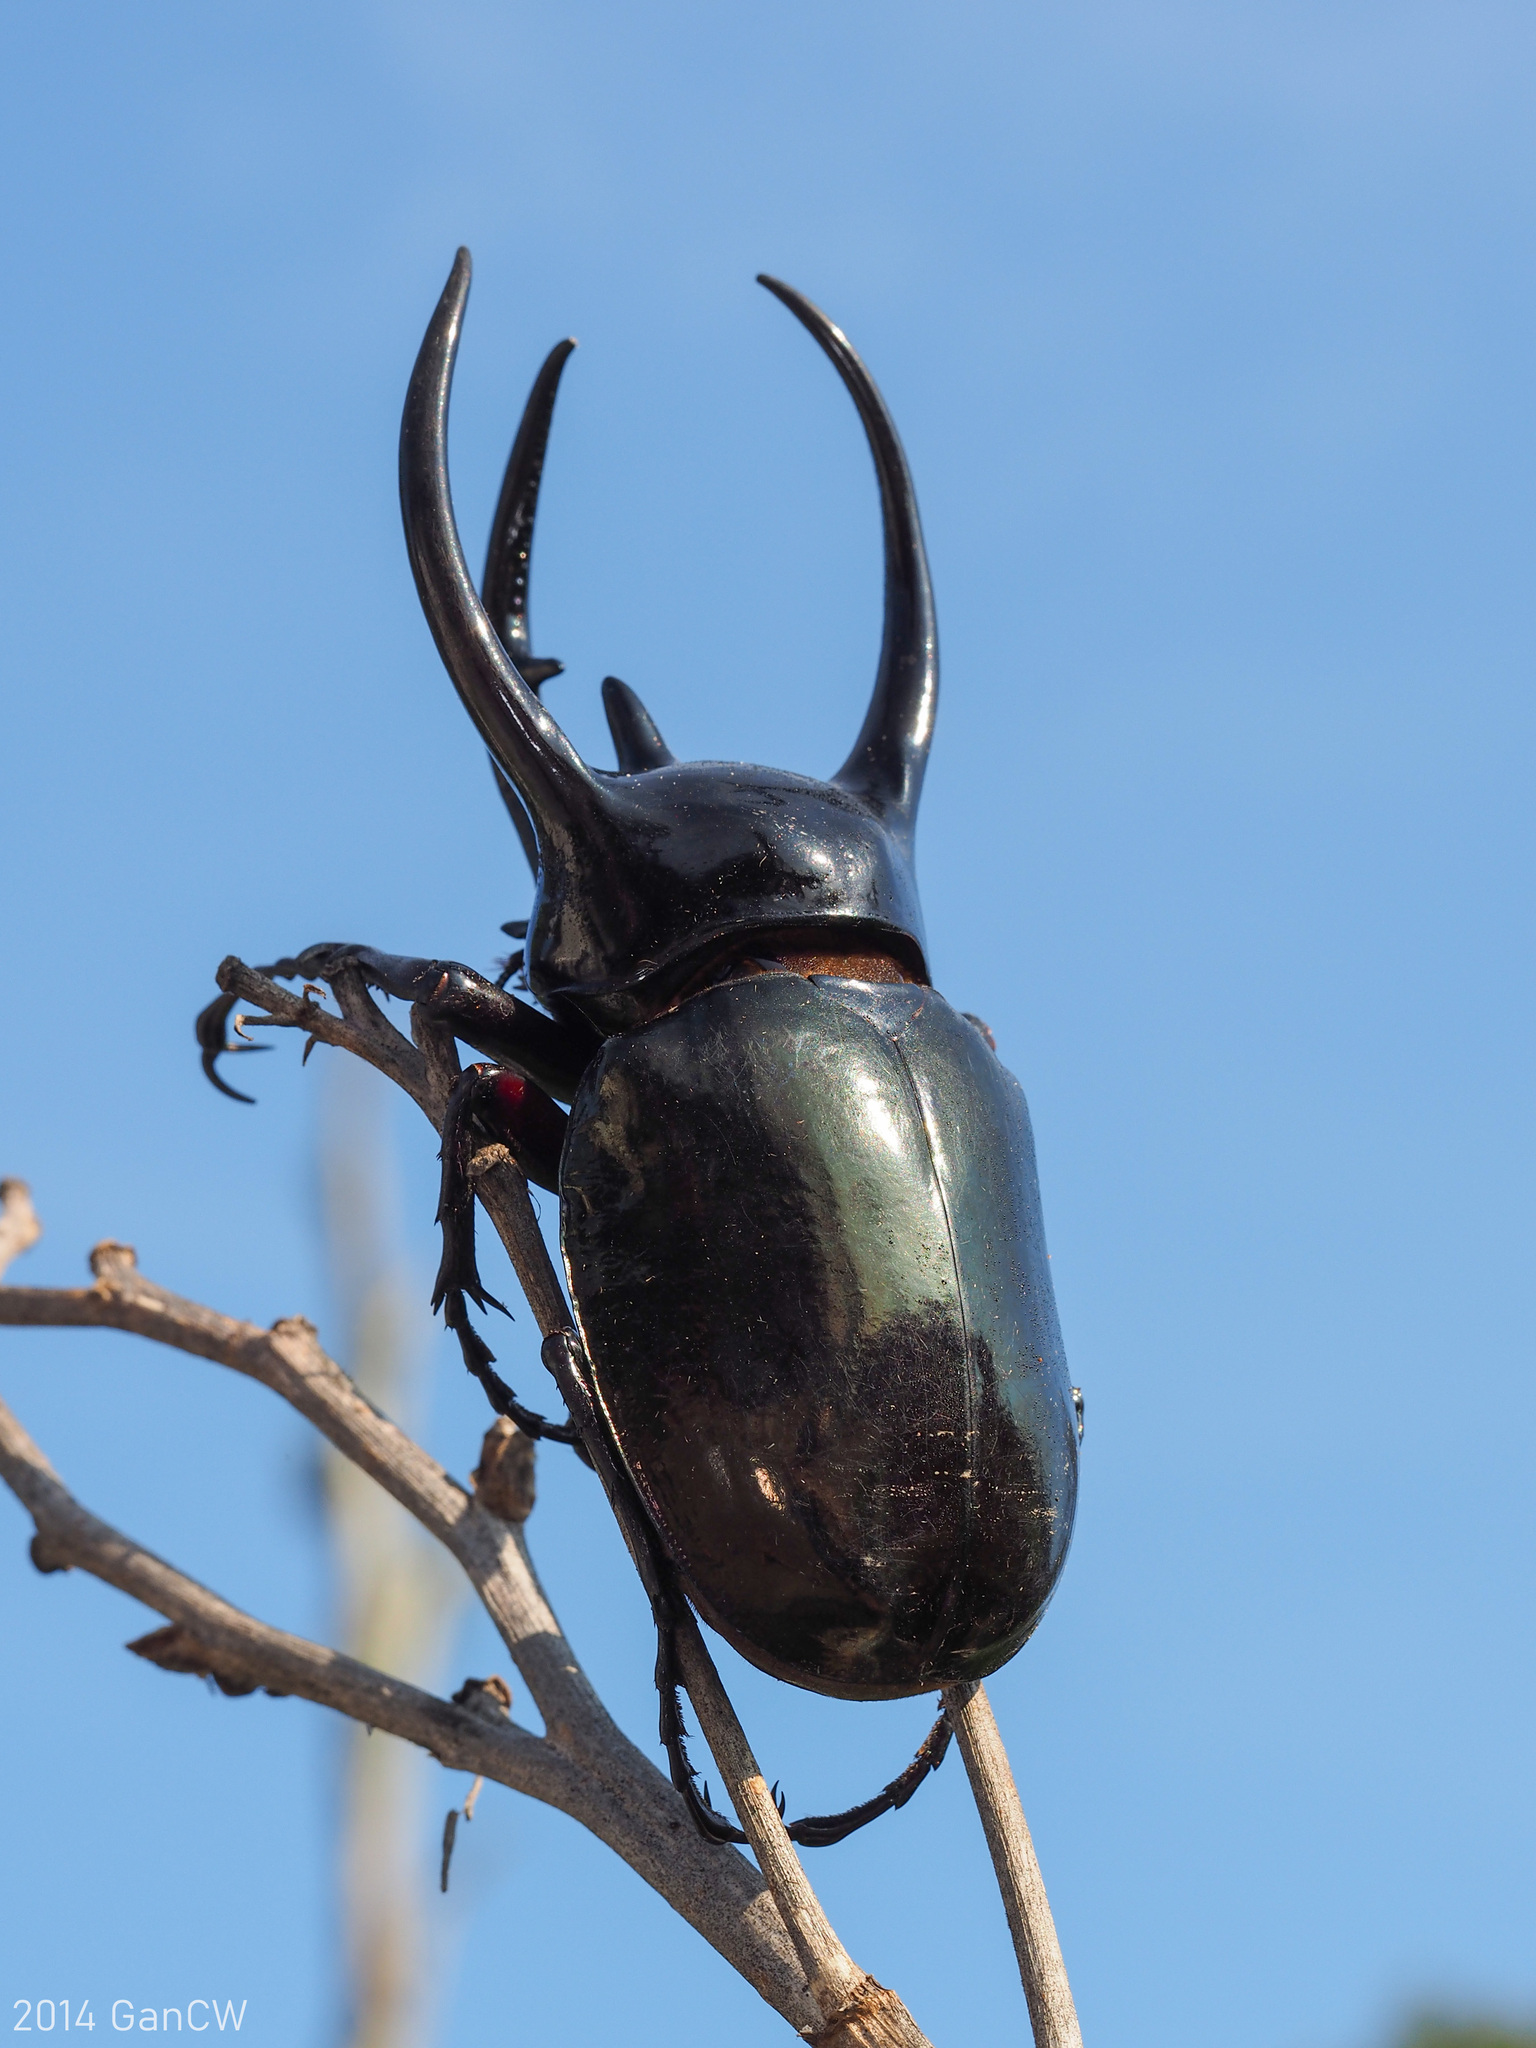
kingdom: Animalia
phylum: Arthropoda
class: Insecta
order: Coleoptera
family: Scarabaeidae
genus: Chalcosoma
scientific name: Chalcosoma chiron
